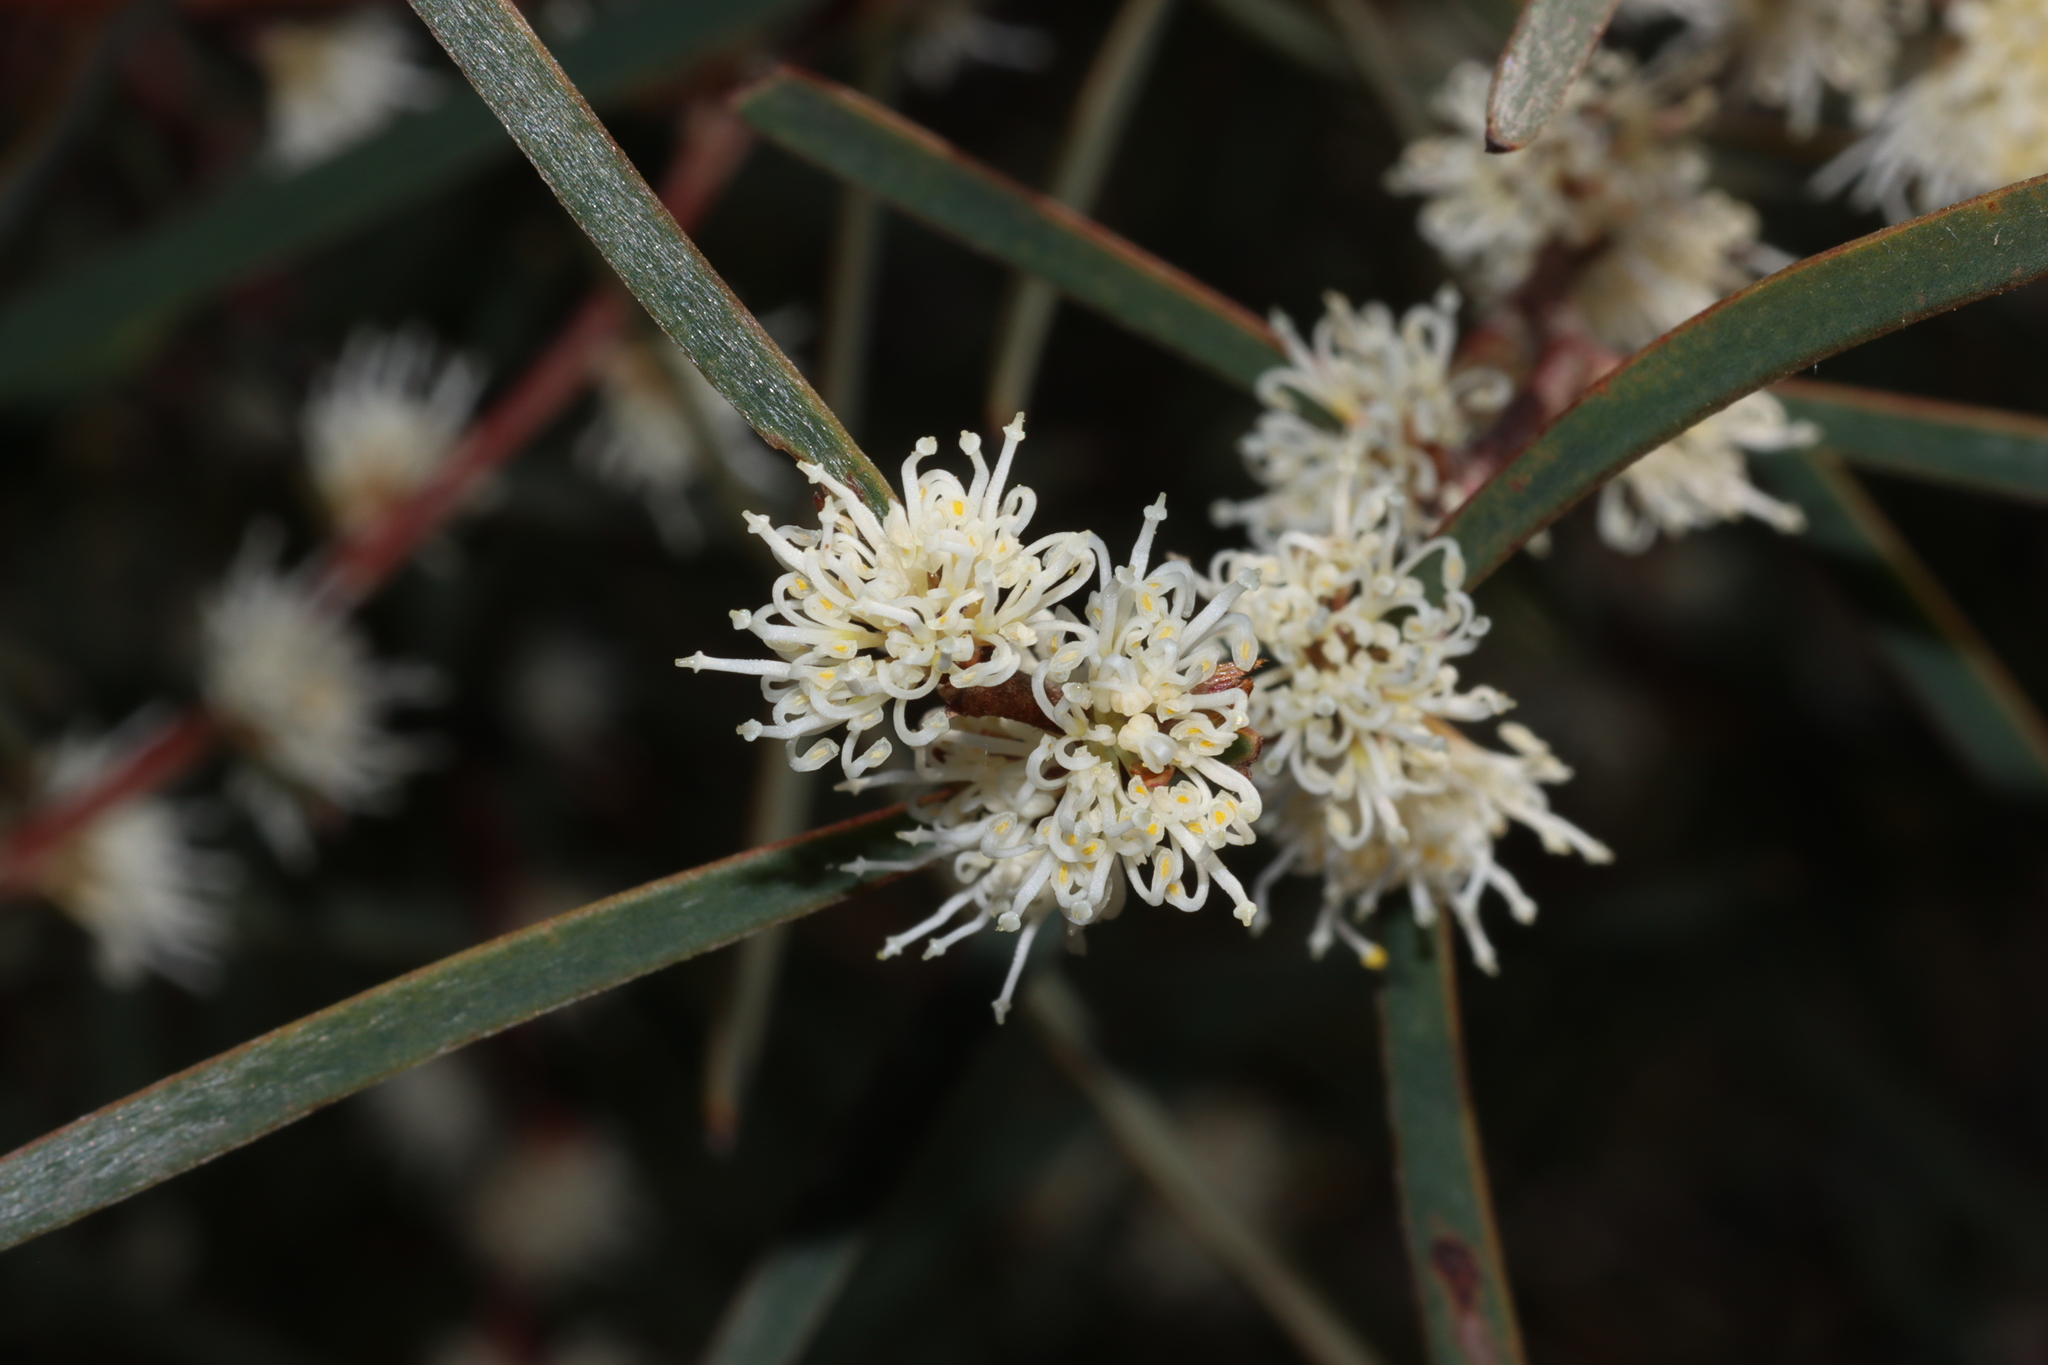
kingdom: Plantae
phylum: Tracheophyta
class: Magnoliopsida
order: Proteales
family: Proteaceae
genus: Hakea
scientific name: Hakea carinata
